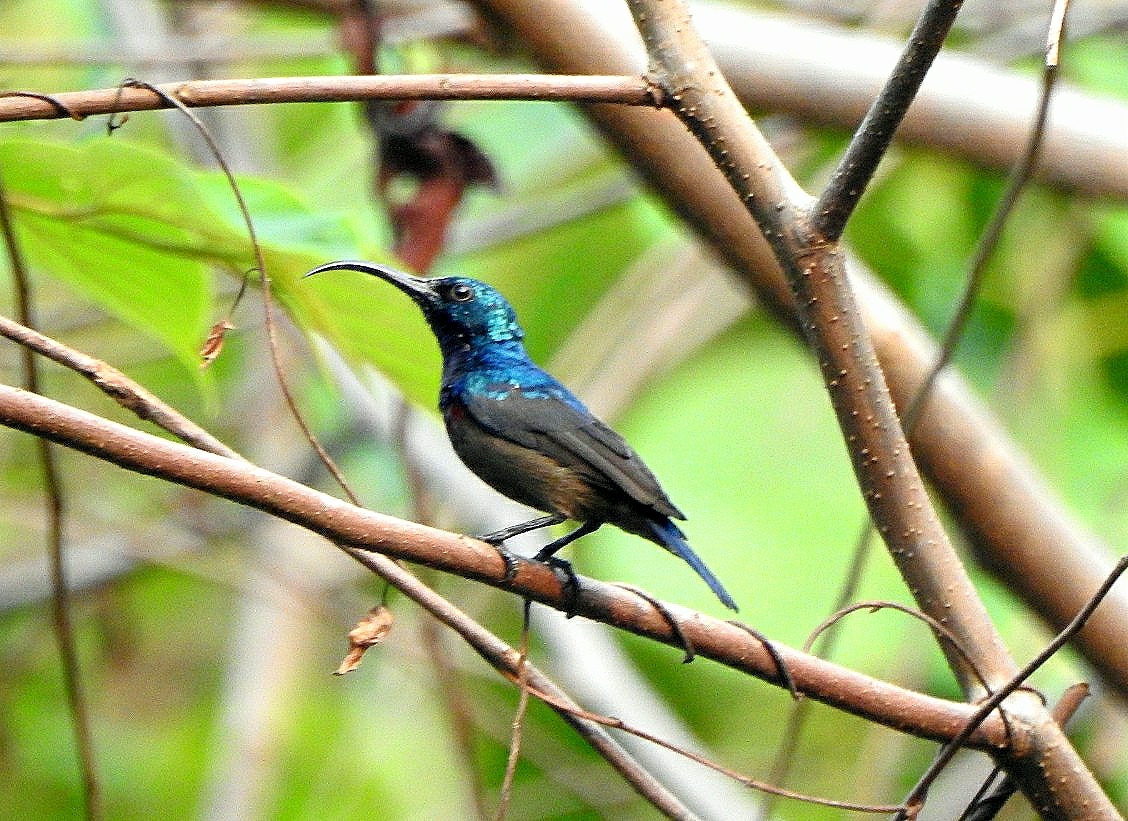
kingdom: Animalia
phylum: Chordata
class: Aves
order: Passeriformes
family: Nectariniidae
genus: Cinnyris
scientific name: Cinnyris lotenius
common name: Loten's sunbird
